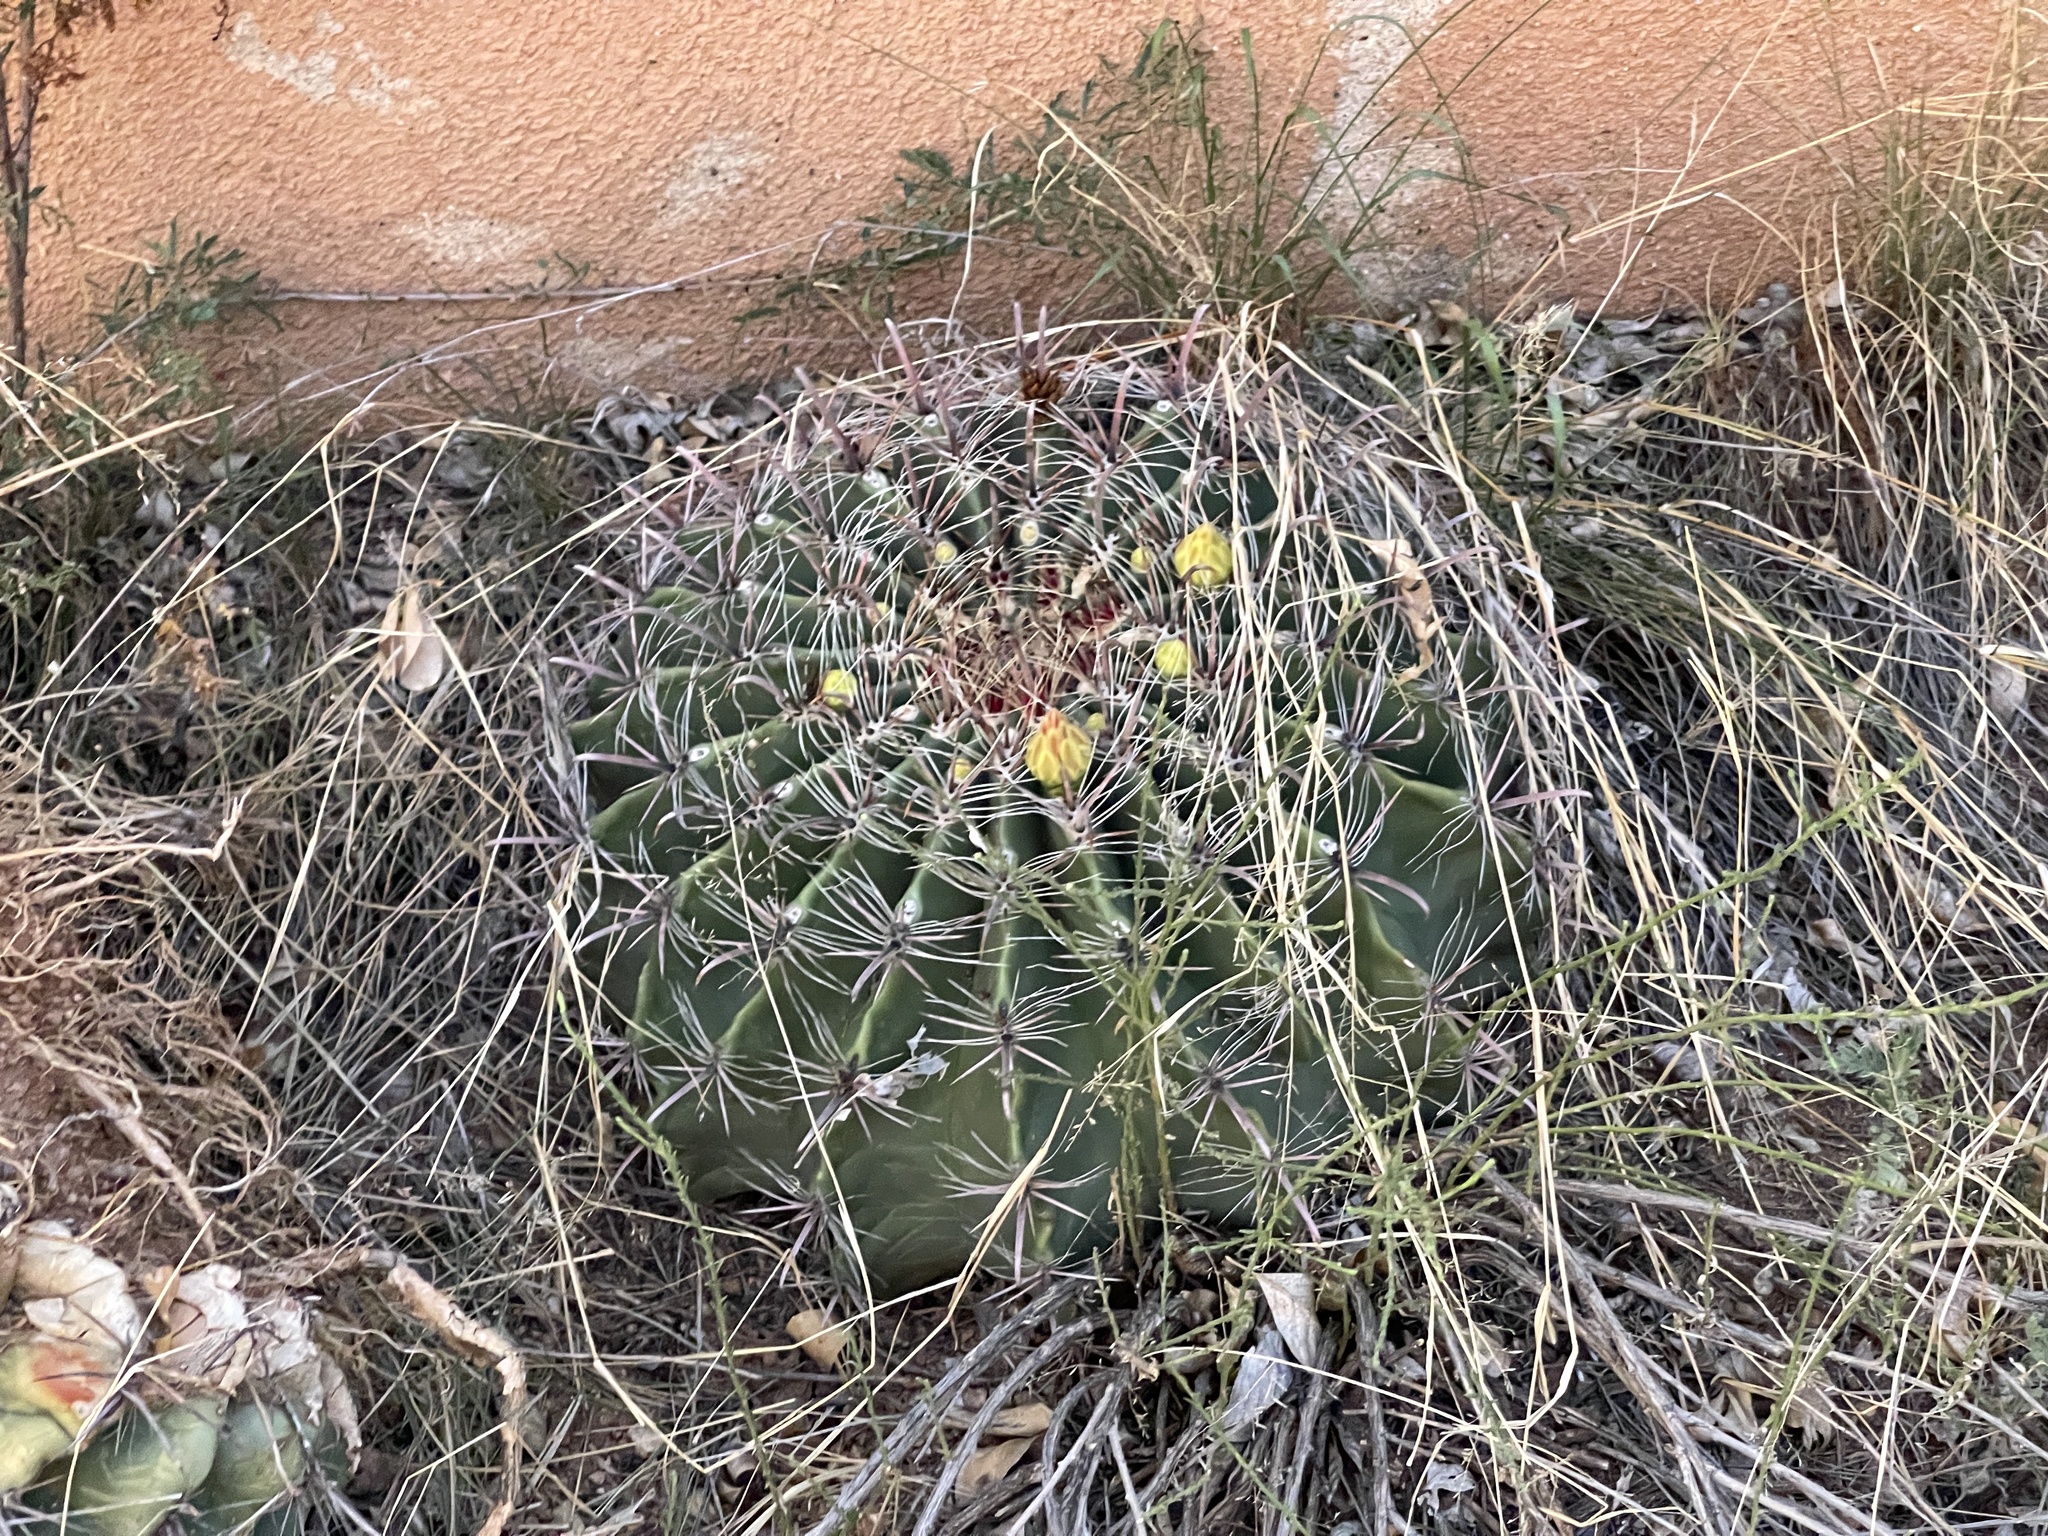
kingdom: Plantae
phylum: Tracheophyta
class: Magnoliopsida
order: Caryophyllales
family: Cactaceae
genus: Ferocactus
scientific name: Ferocactus wislizeni
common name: Candy barrel cactus
